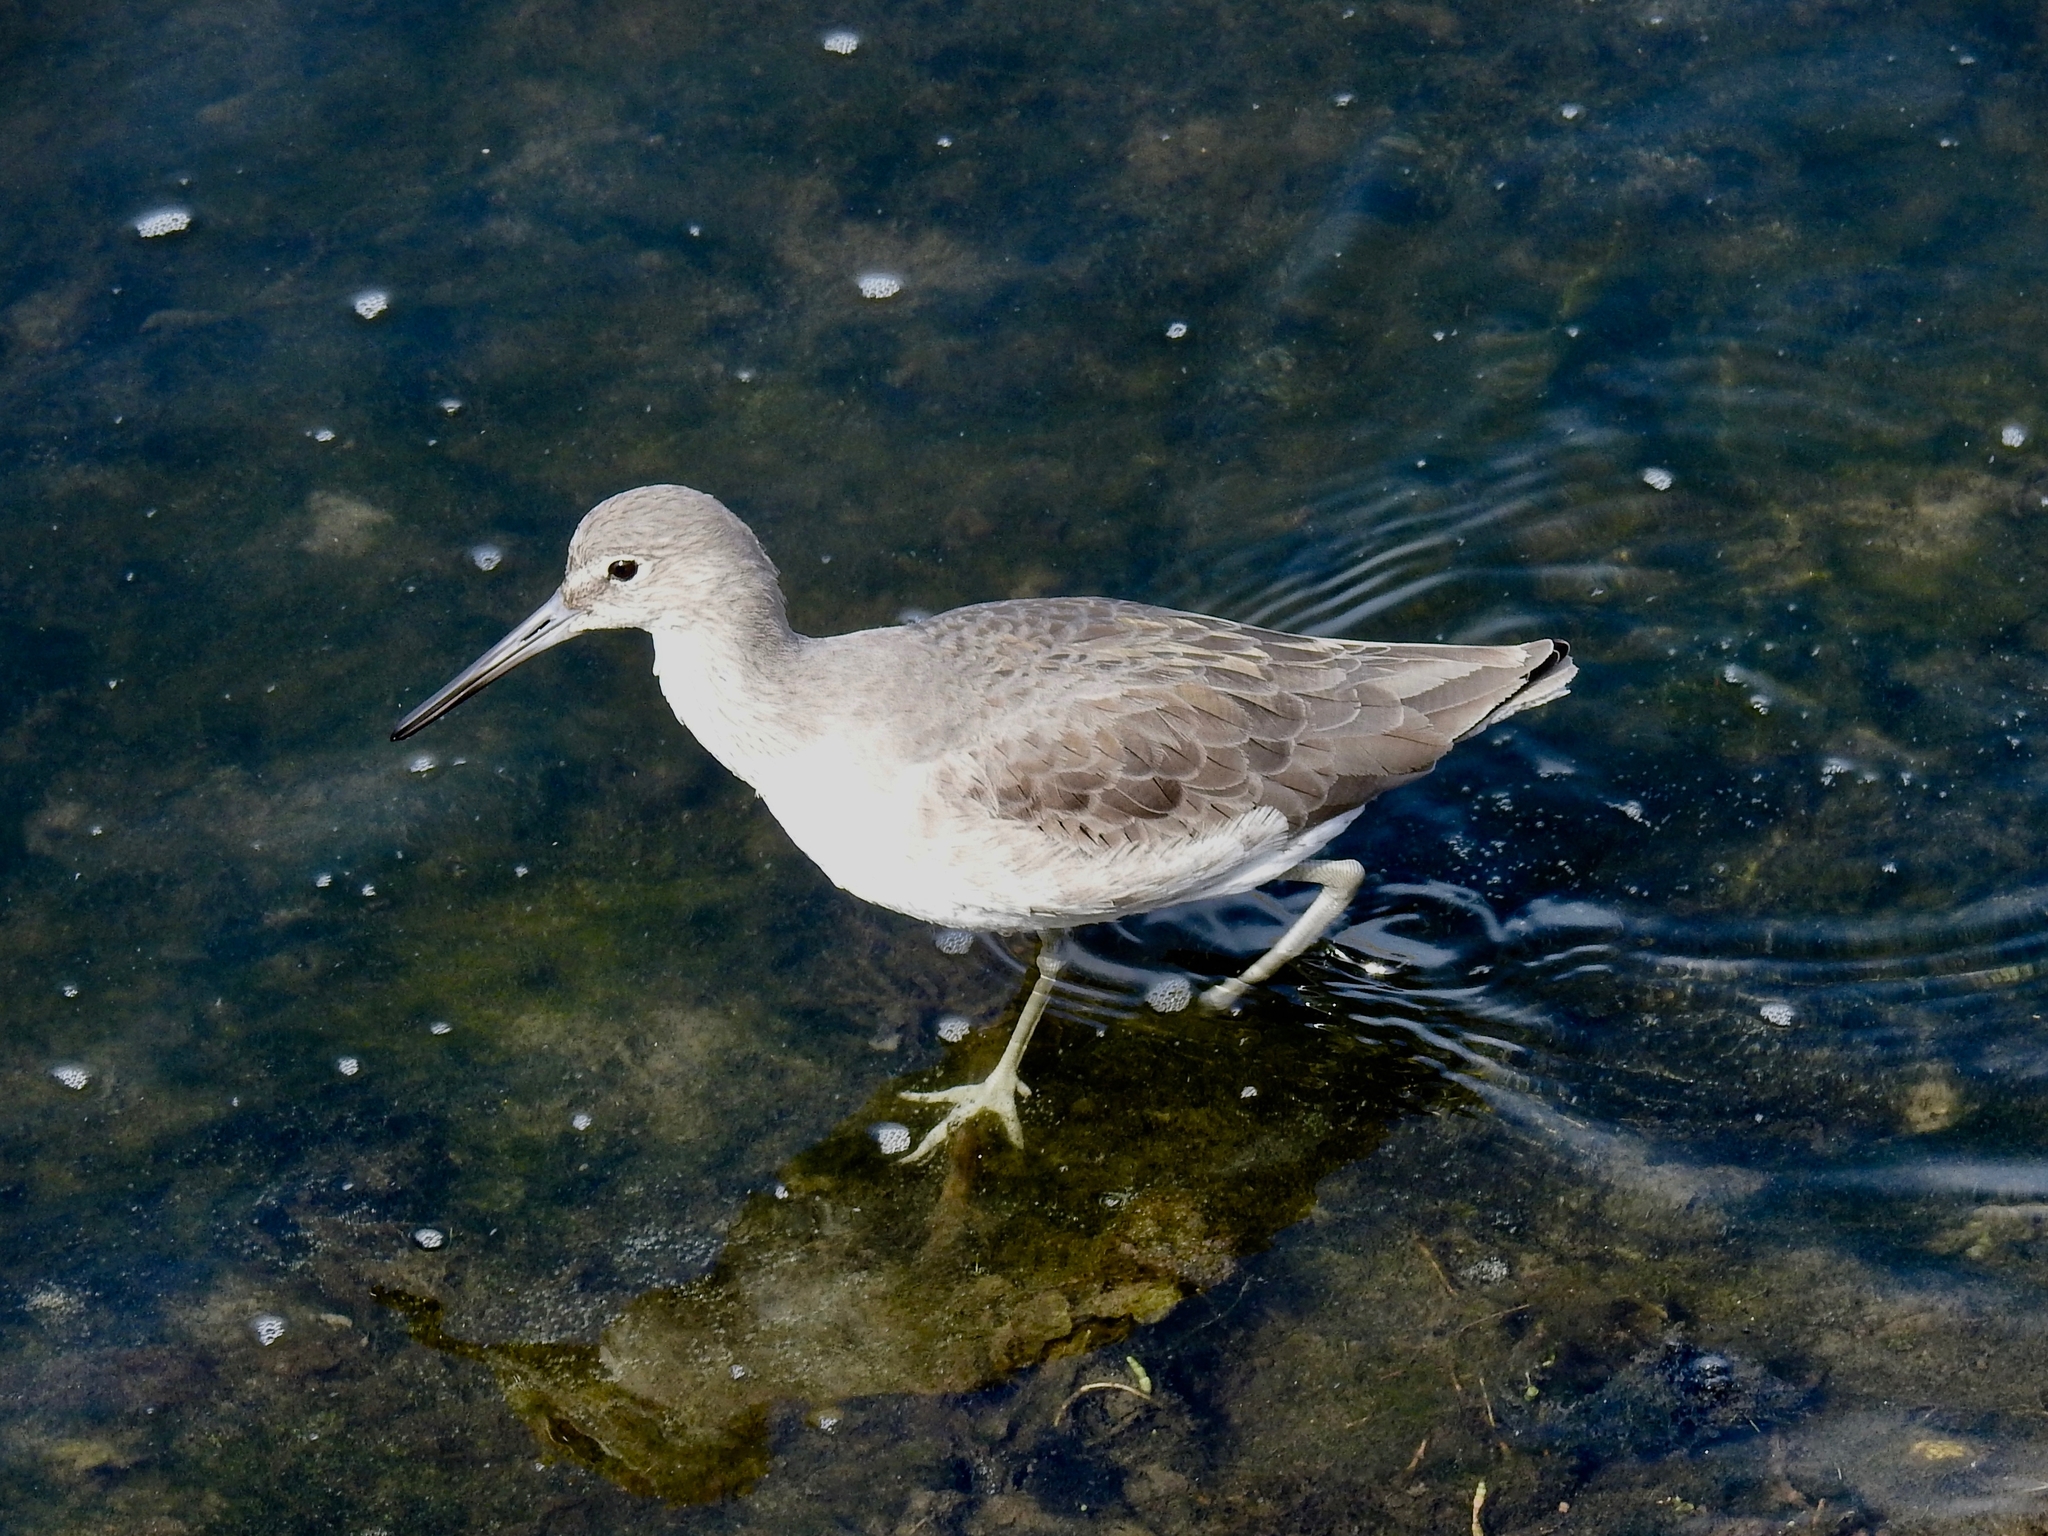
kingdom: Animalia
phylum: Chordata
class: Aves
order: Charadriiformes
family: Scolopacidae
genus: Tringa
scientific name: Tringa semipalmata
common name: Willet
